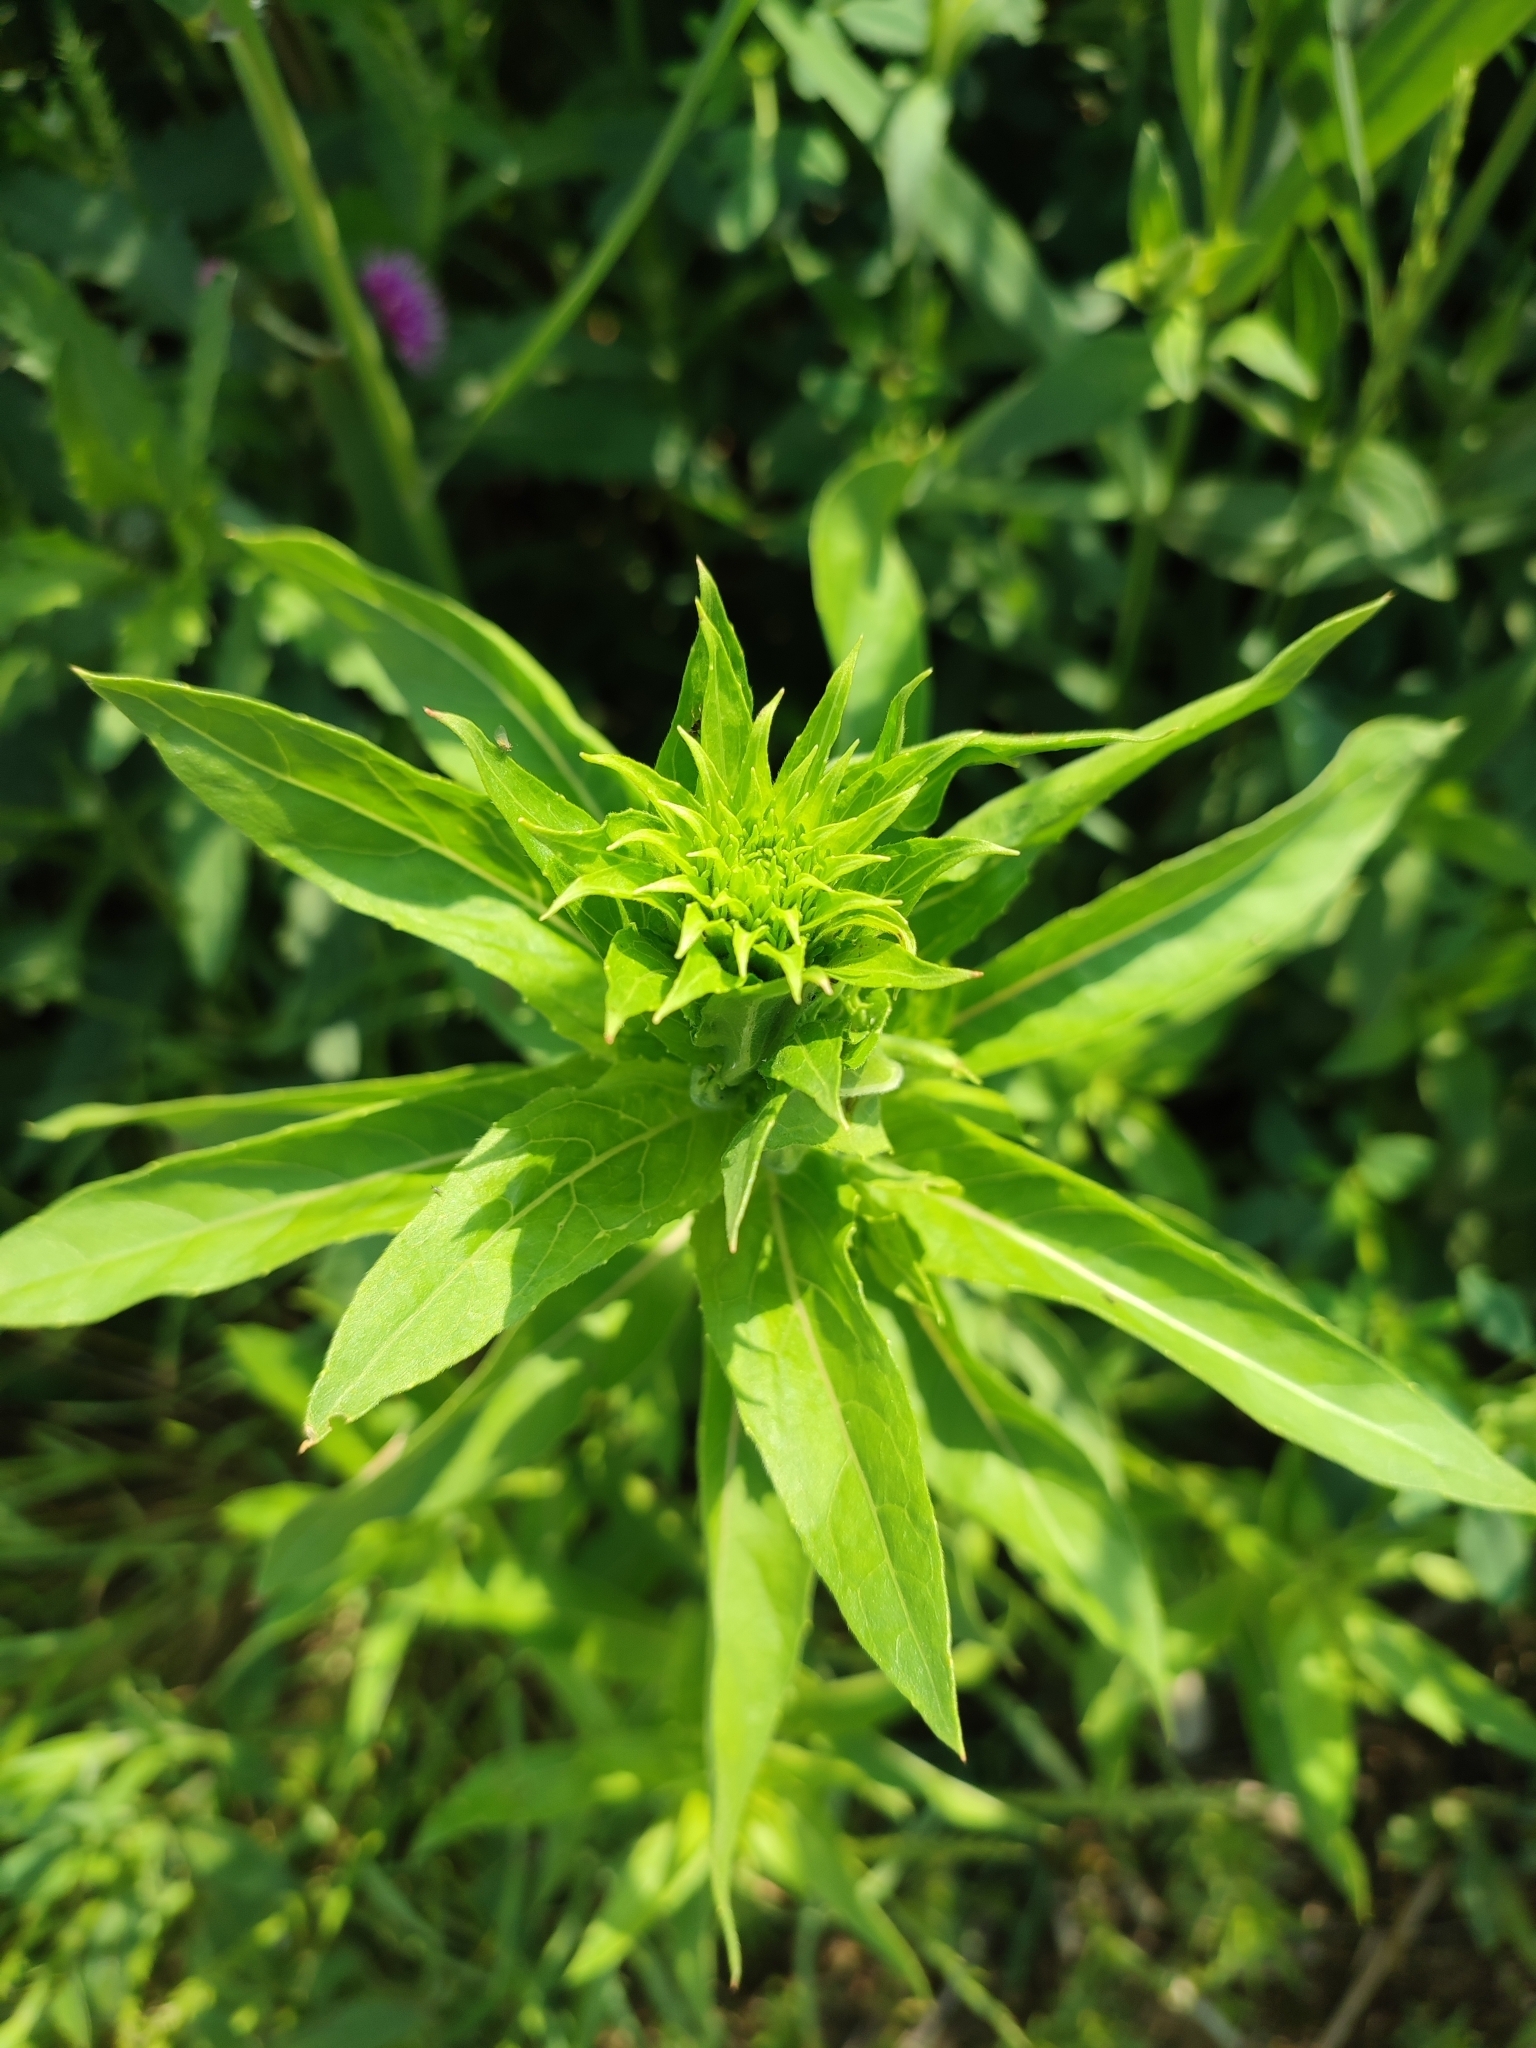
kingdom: Plantae
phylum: Tracheophyta
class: Magnoliopsida
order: Myrtales
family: Onagraceae
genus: Oenothera
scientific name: Oenothera biennis
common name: Common evening-primrose
